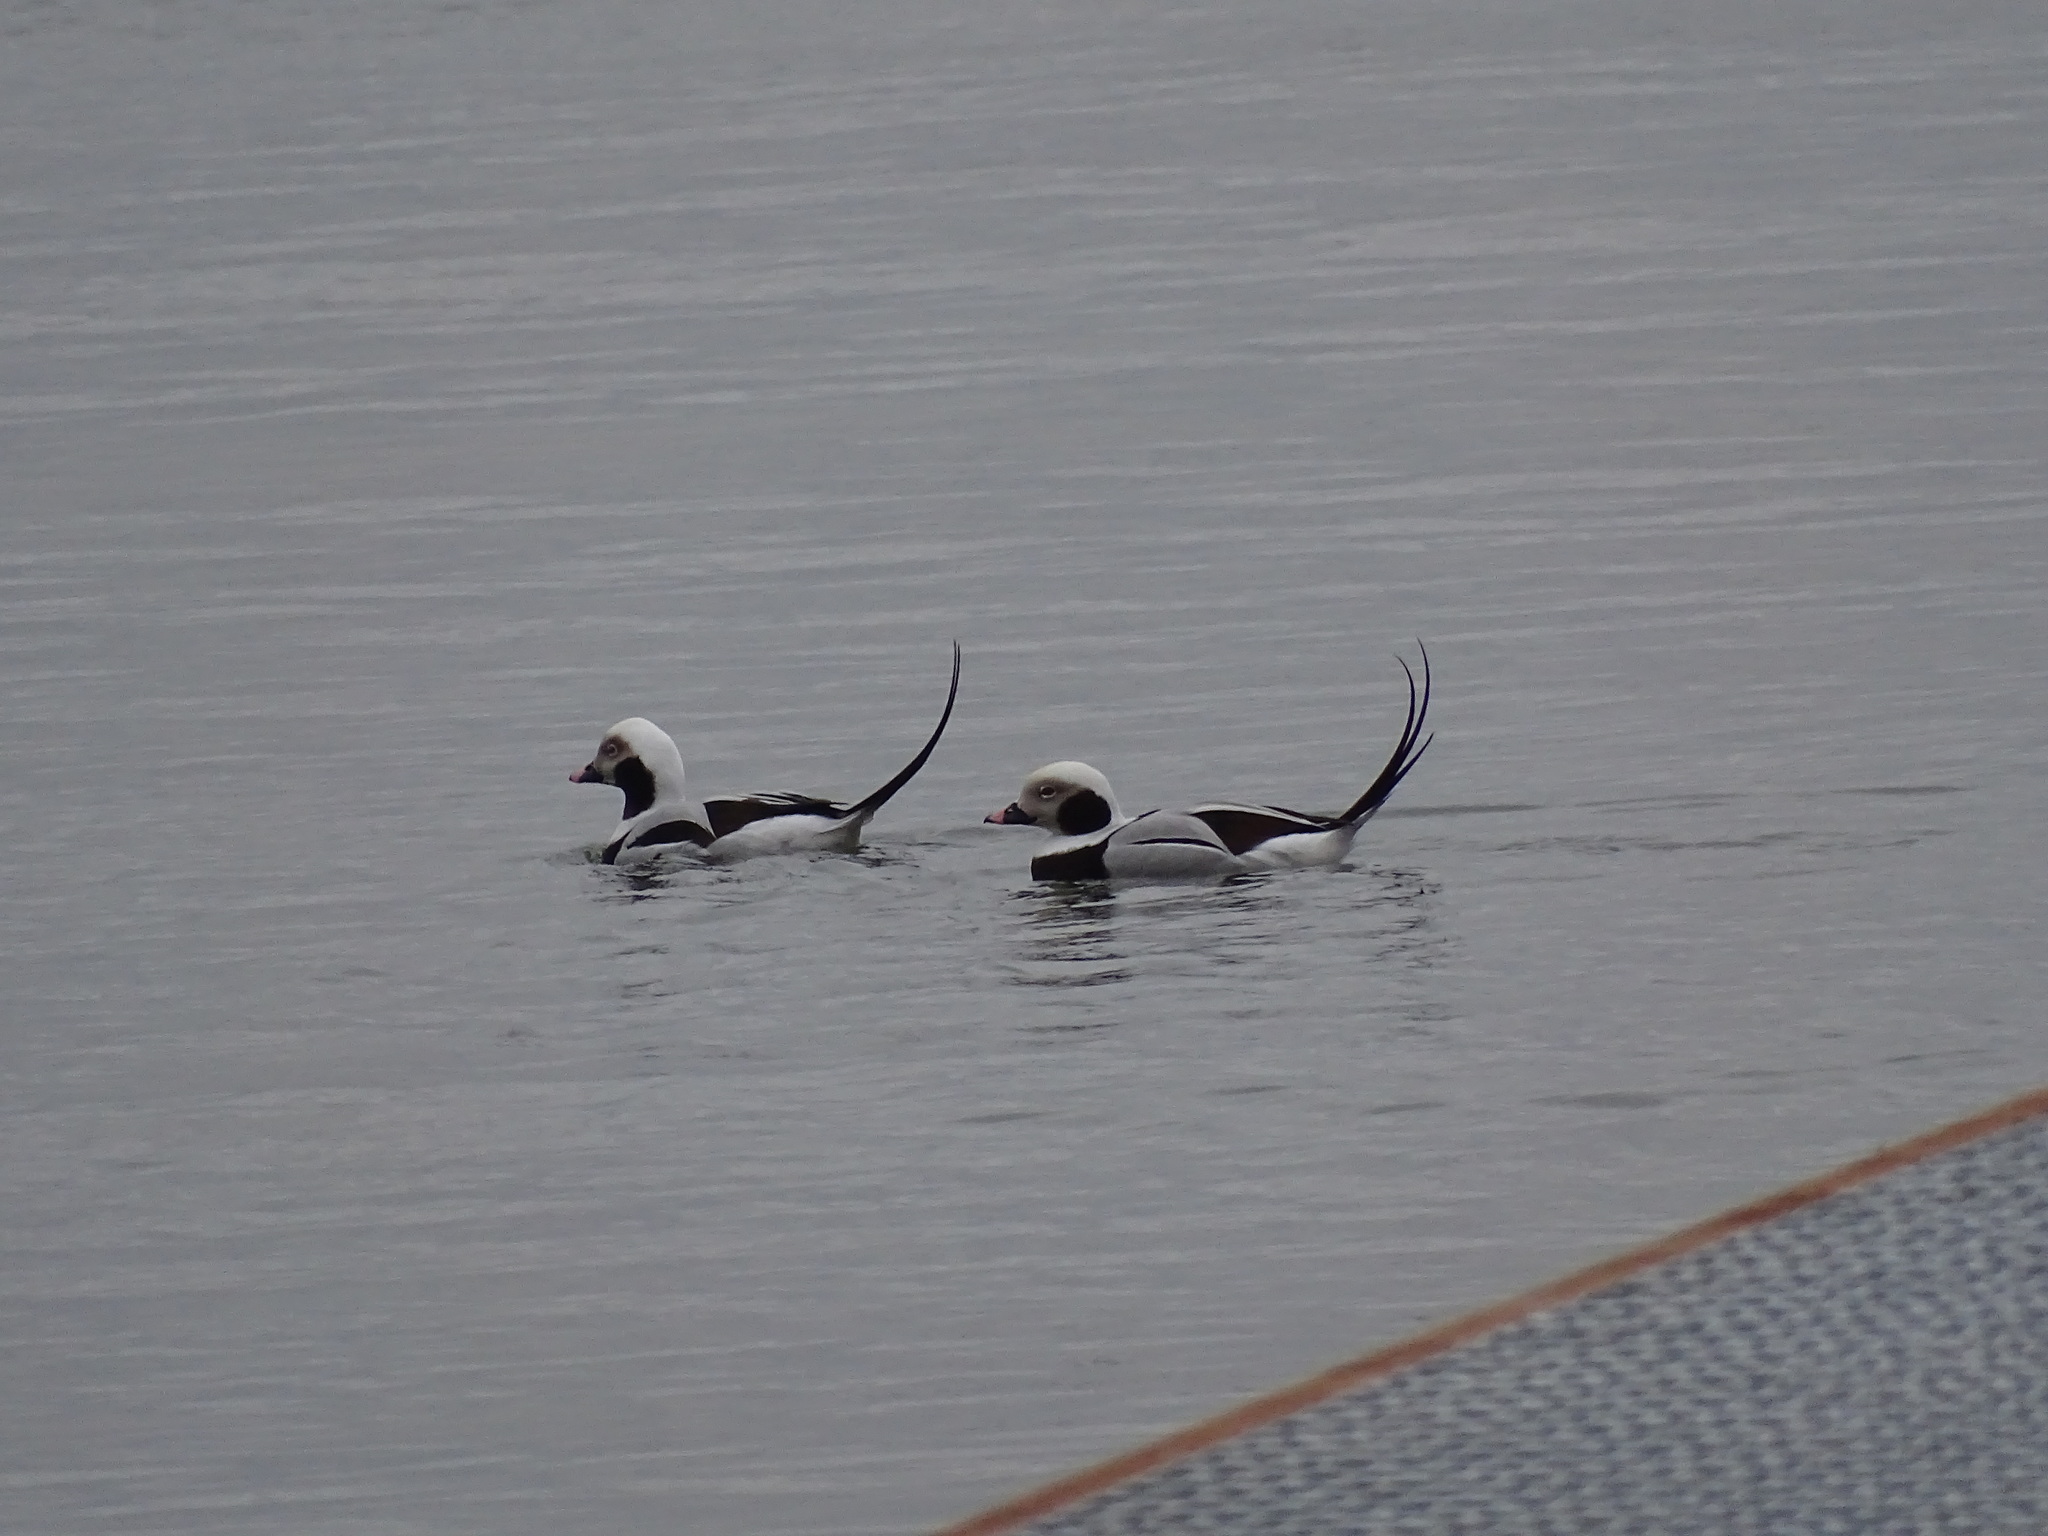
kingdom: Animalia
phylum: Chordata
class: Aves
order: Anseriformes
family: Anatidae
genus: Clangula
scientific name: Clangula hyemalis
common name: Long-tailed duck
